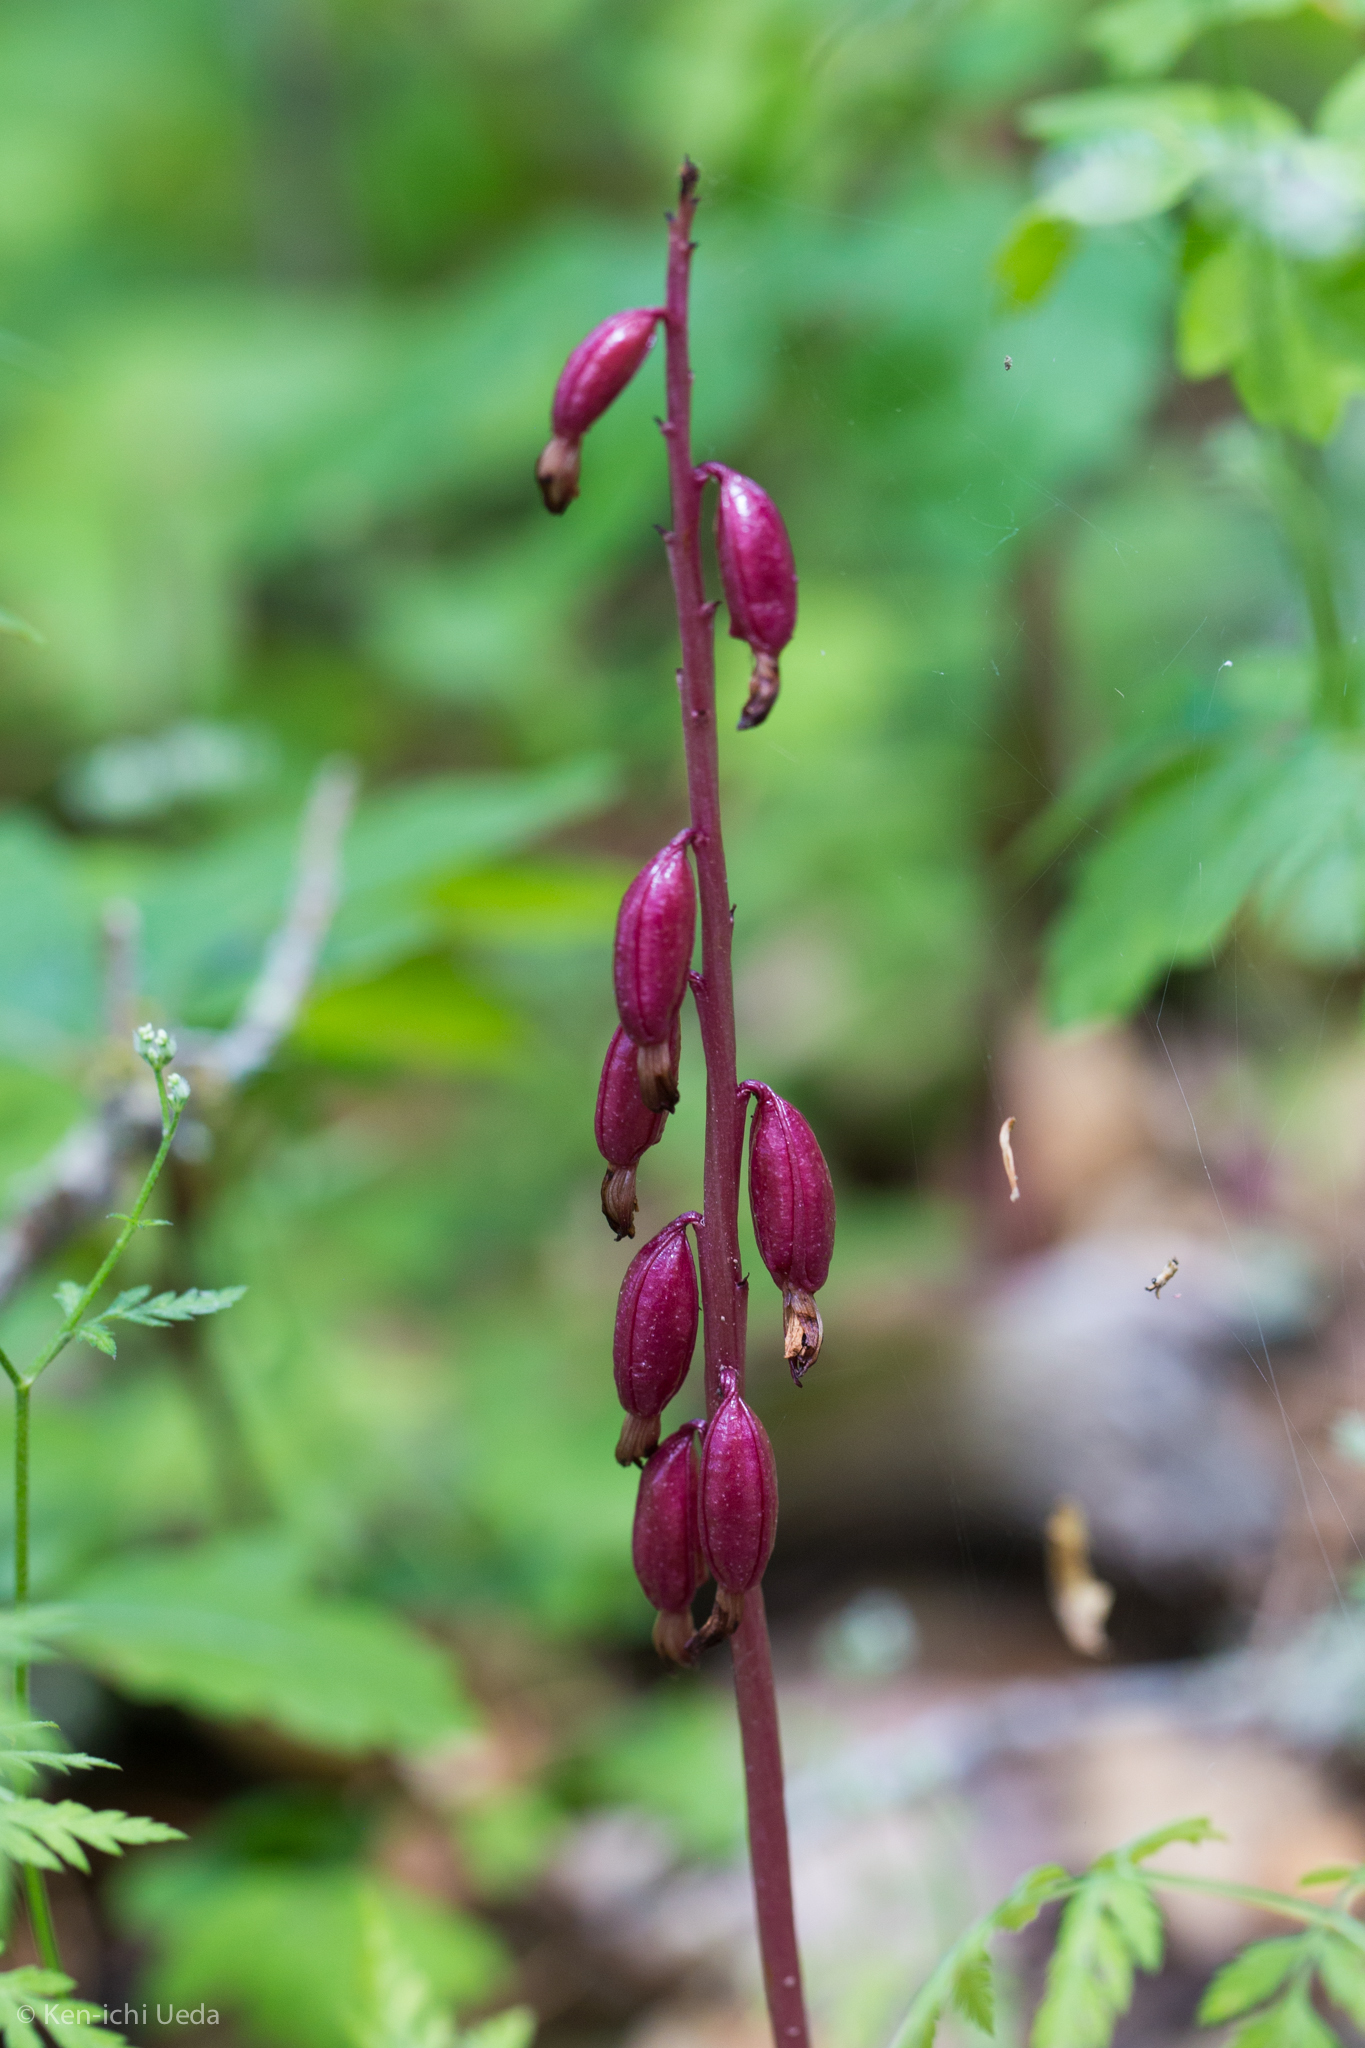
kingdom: Plantae
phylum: Tracheophyta
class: Liliopsida
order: Asparagales
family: Orchidaceae
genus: Corallorhiza
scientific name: Corallorhiza maculata
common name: Spotted coralroot
